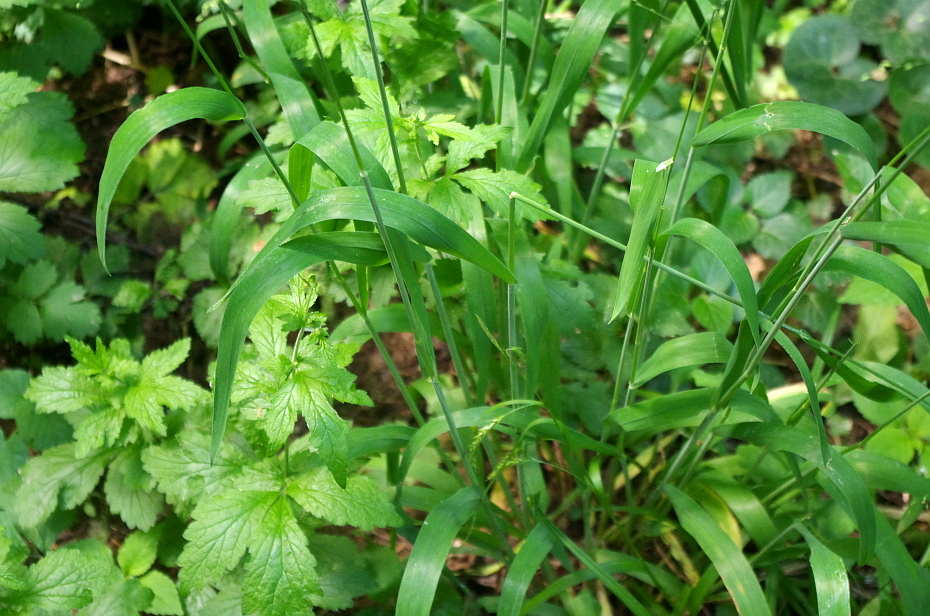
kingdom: Plantae
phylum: Tracheophyta
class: Liliopsida
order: Poales
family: Poaceae
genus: Milium
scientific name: Milium effusum
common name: Wood millet
